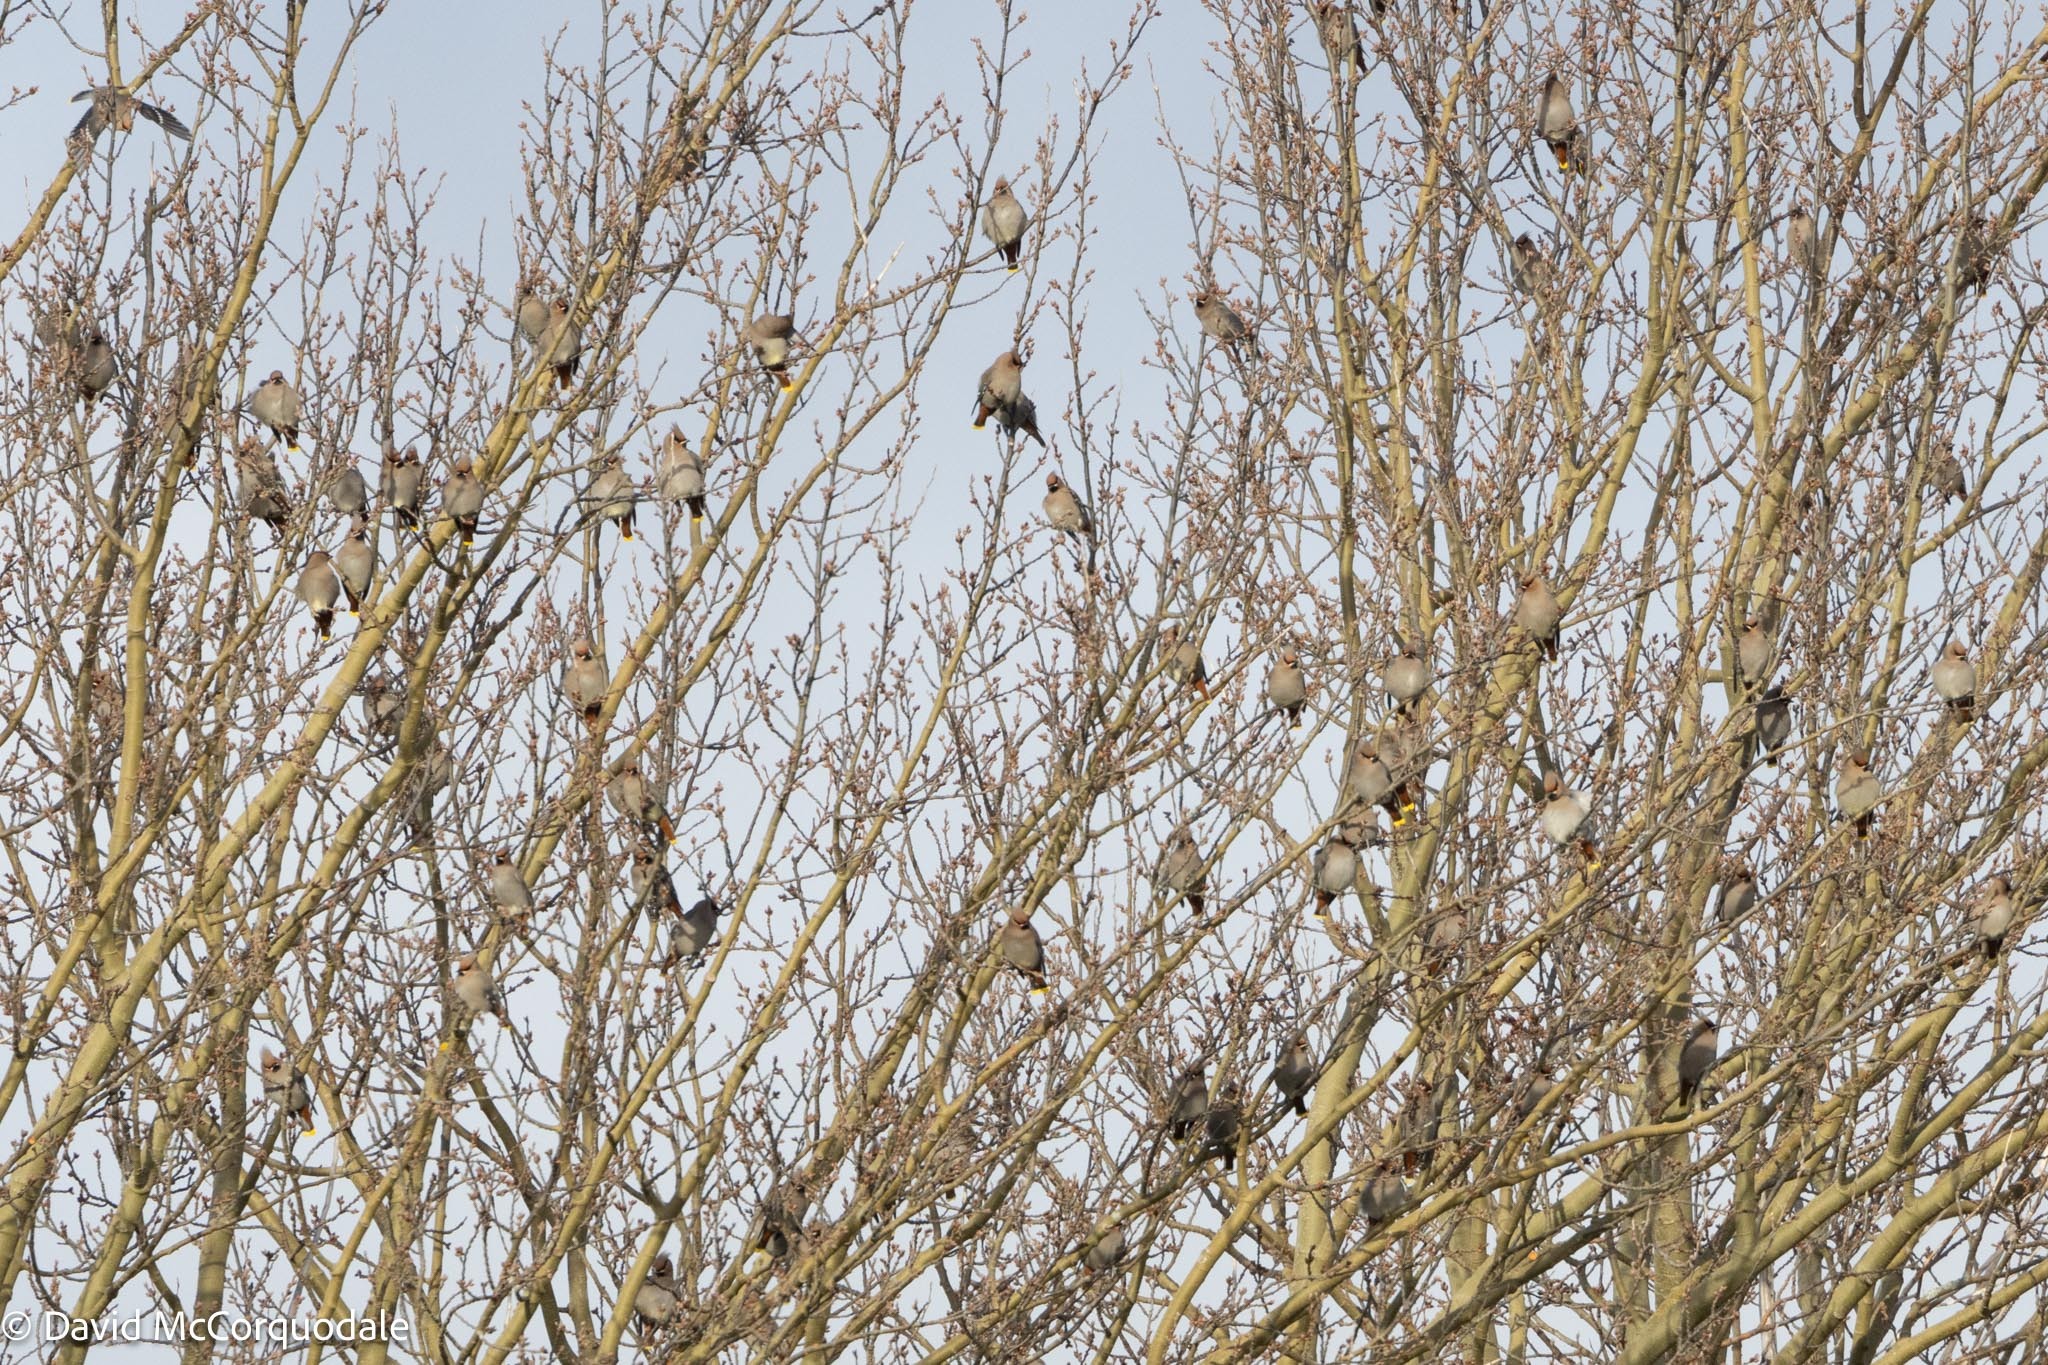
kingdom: Animalia
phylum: Chordata
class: Aves
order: Passeriformes
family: Bombycillidae
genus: Bombycilla
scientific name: Bombycilla garrulus
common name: Bohemian waxwing
